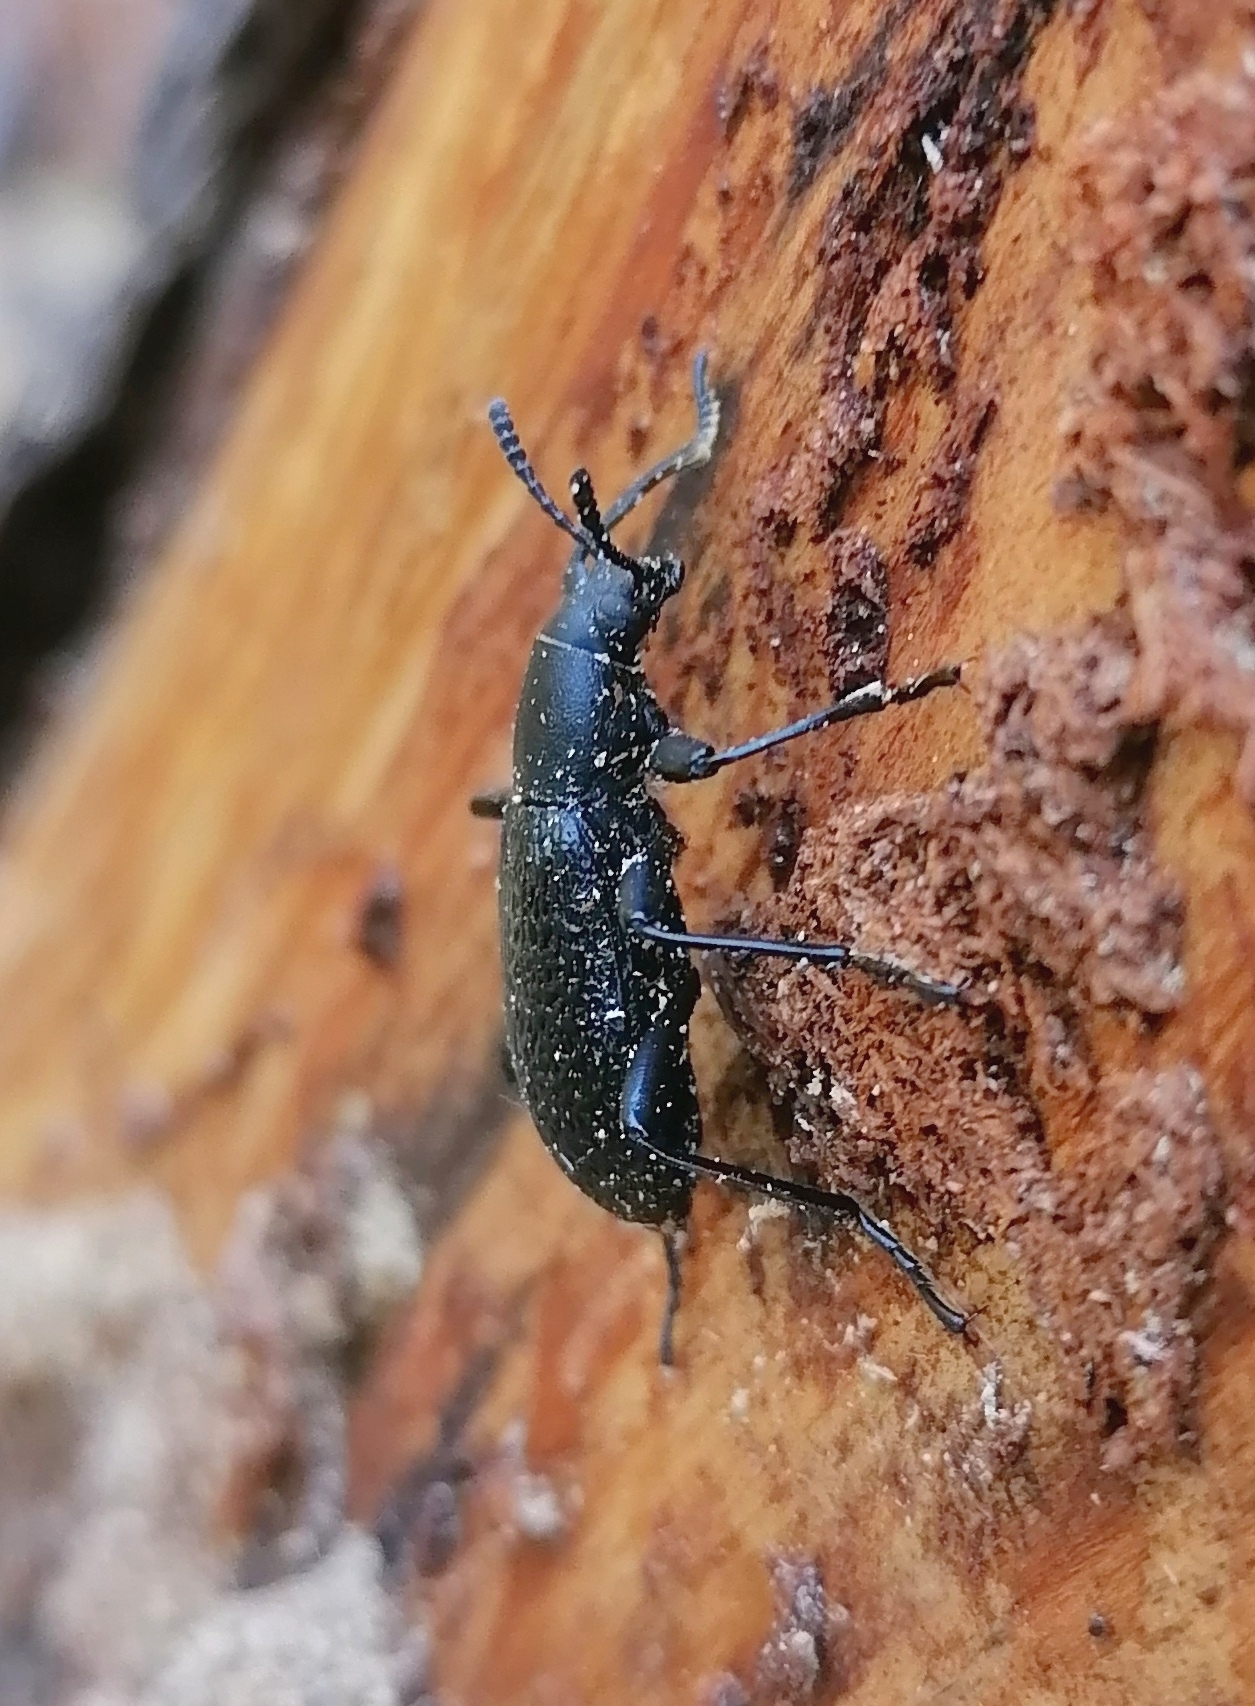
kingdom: Animalia
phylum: Arthropoda
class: Insecta
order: Coleoptera
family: Tenebrionidae
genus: Upis
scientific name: Upis ceramboides
